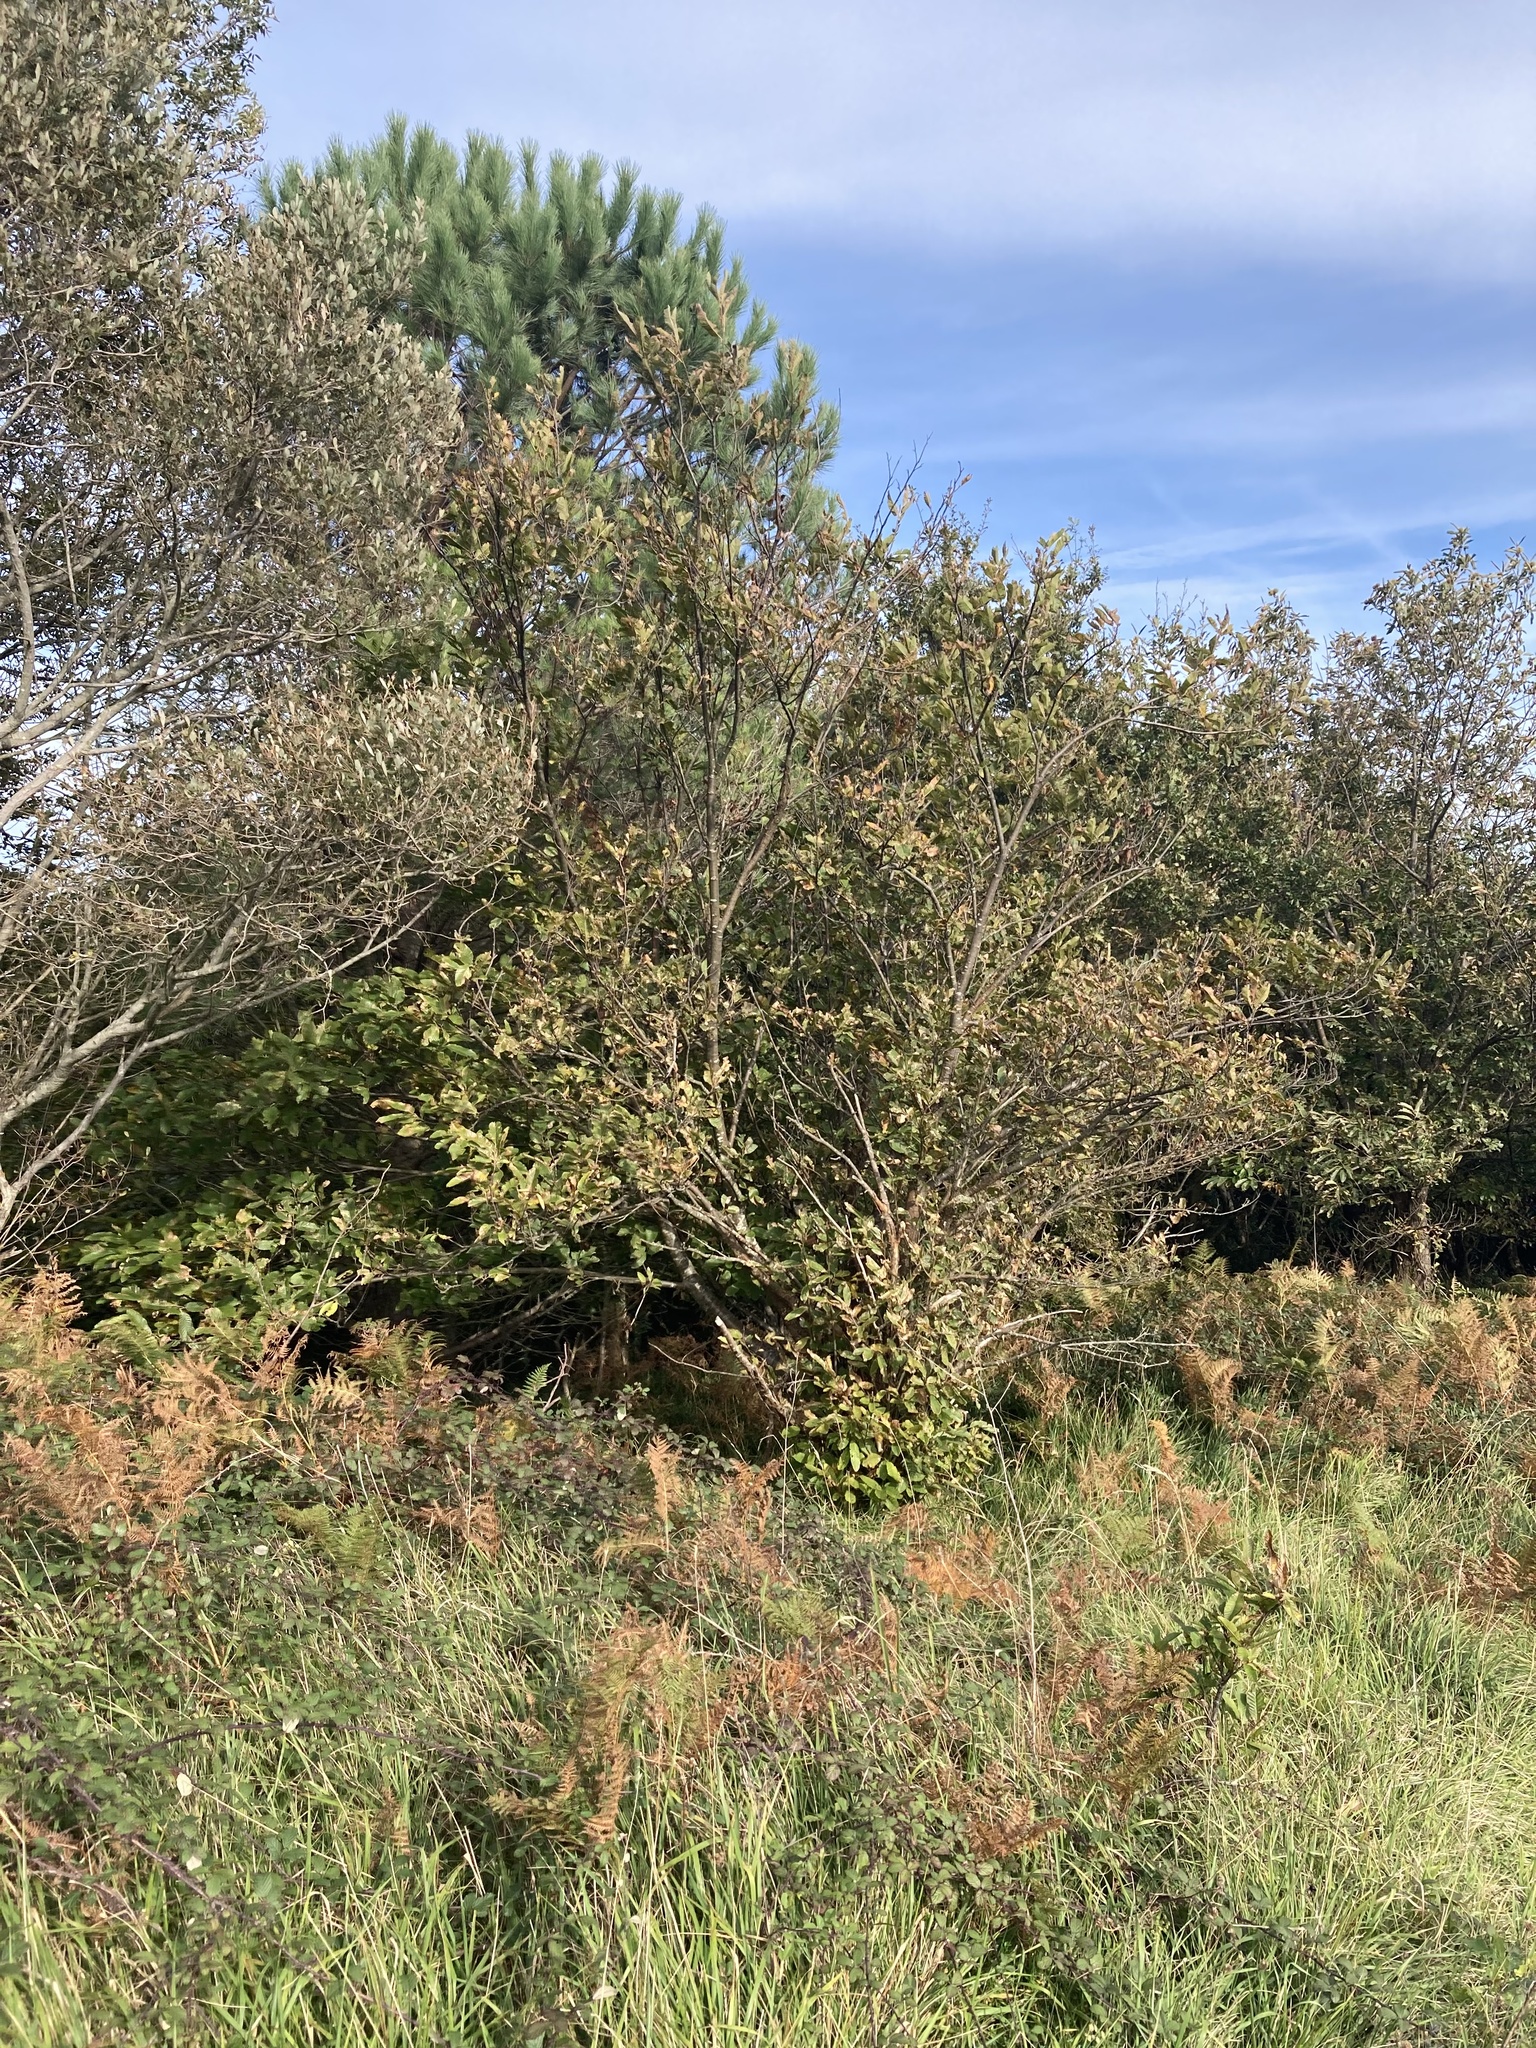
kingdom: Plantae
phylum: Tracheophyta
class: Magnoliopsida
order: Fagales
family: Fagaceae
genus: Castanea
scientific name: Castanea sativa
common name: Sweet chestnut
